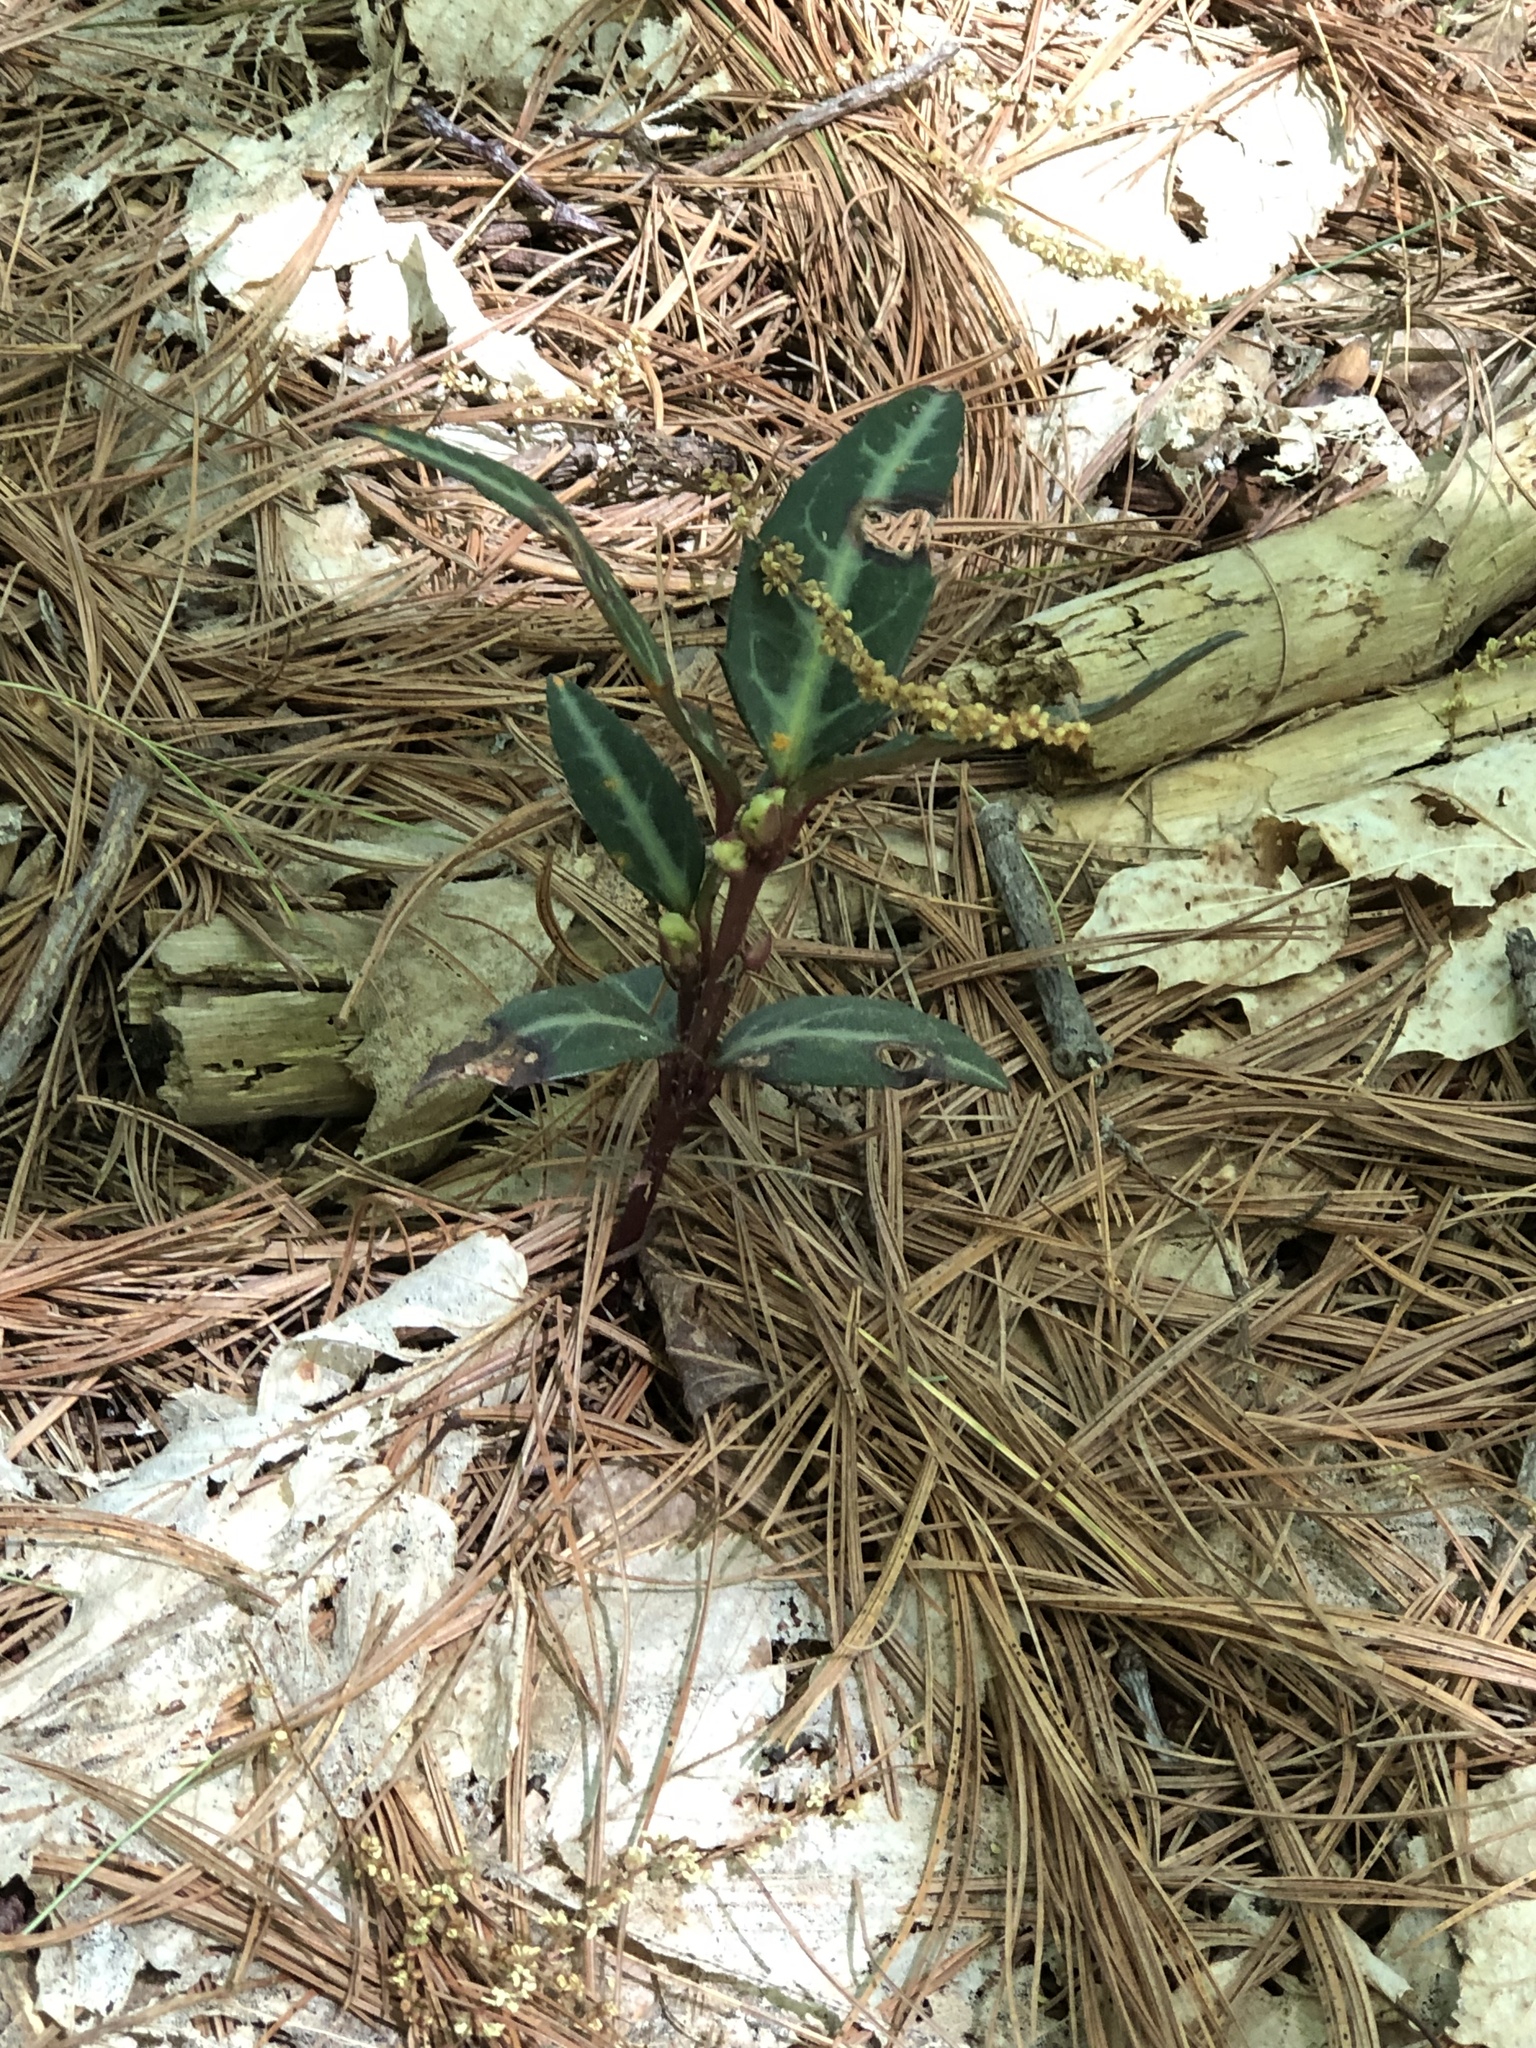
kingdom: Plantae
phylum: Tracheophyta
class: Magnoliopsida
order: Ericales
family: Ericaceae
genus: Chimaphila
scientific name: Chimaphila maculata
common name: Spotted pipsissewa
